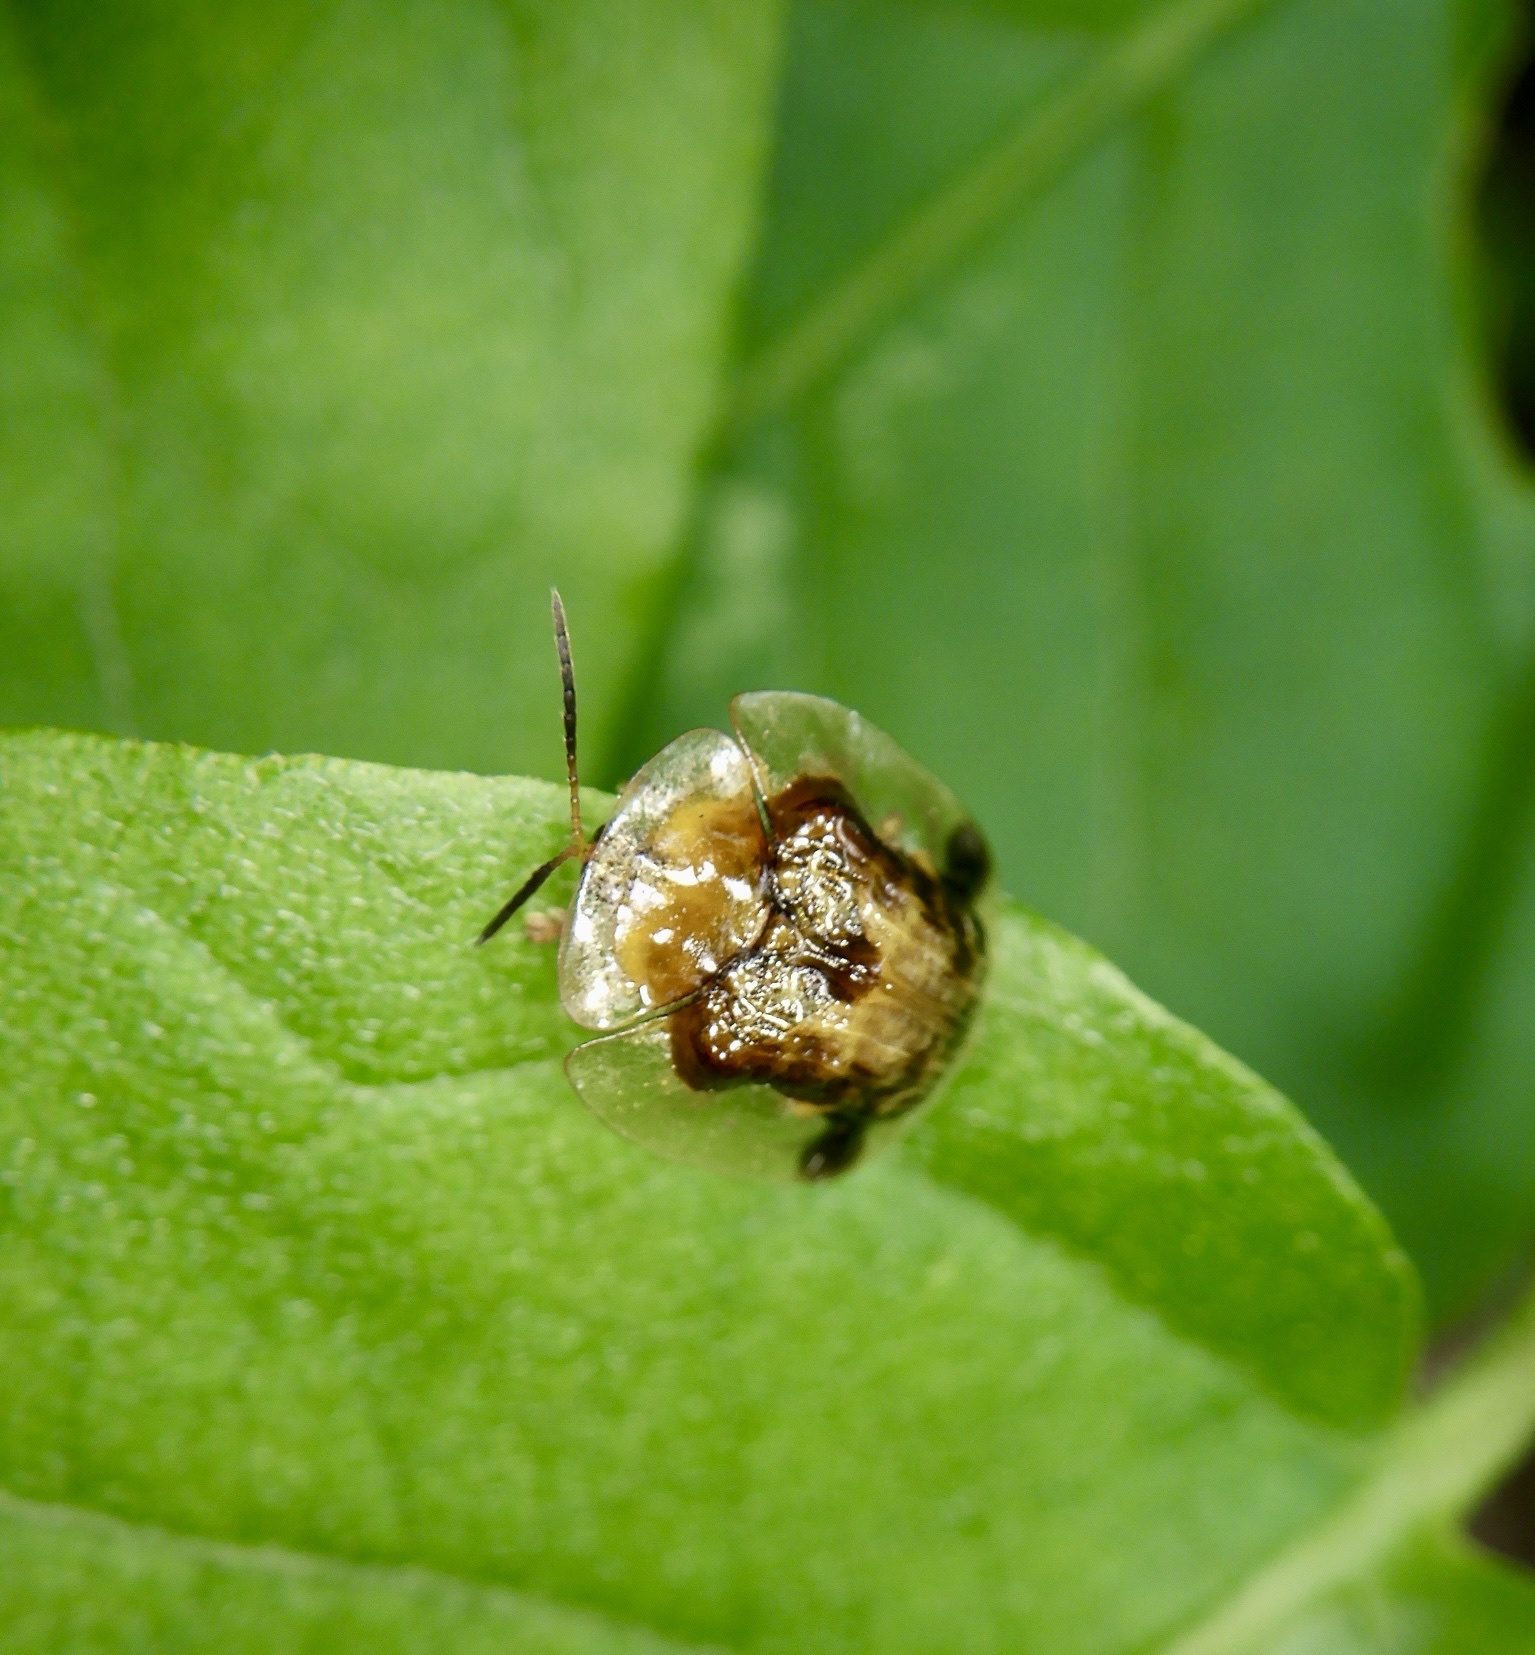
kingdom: Animalia
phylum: Arthropoda
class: Insecta
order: Coleoptera
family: Chrysomelidae
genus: Thlaspida
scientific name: Thlaspida cribrosa
